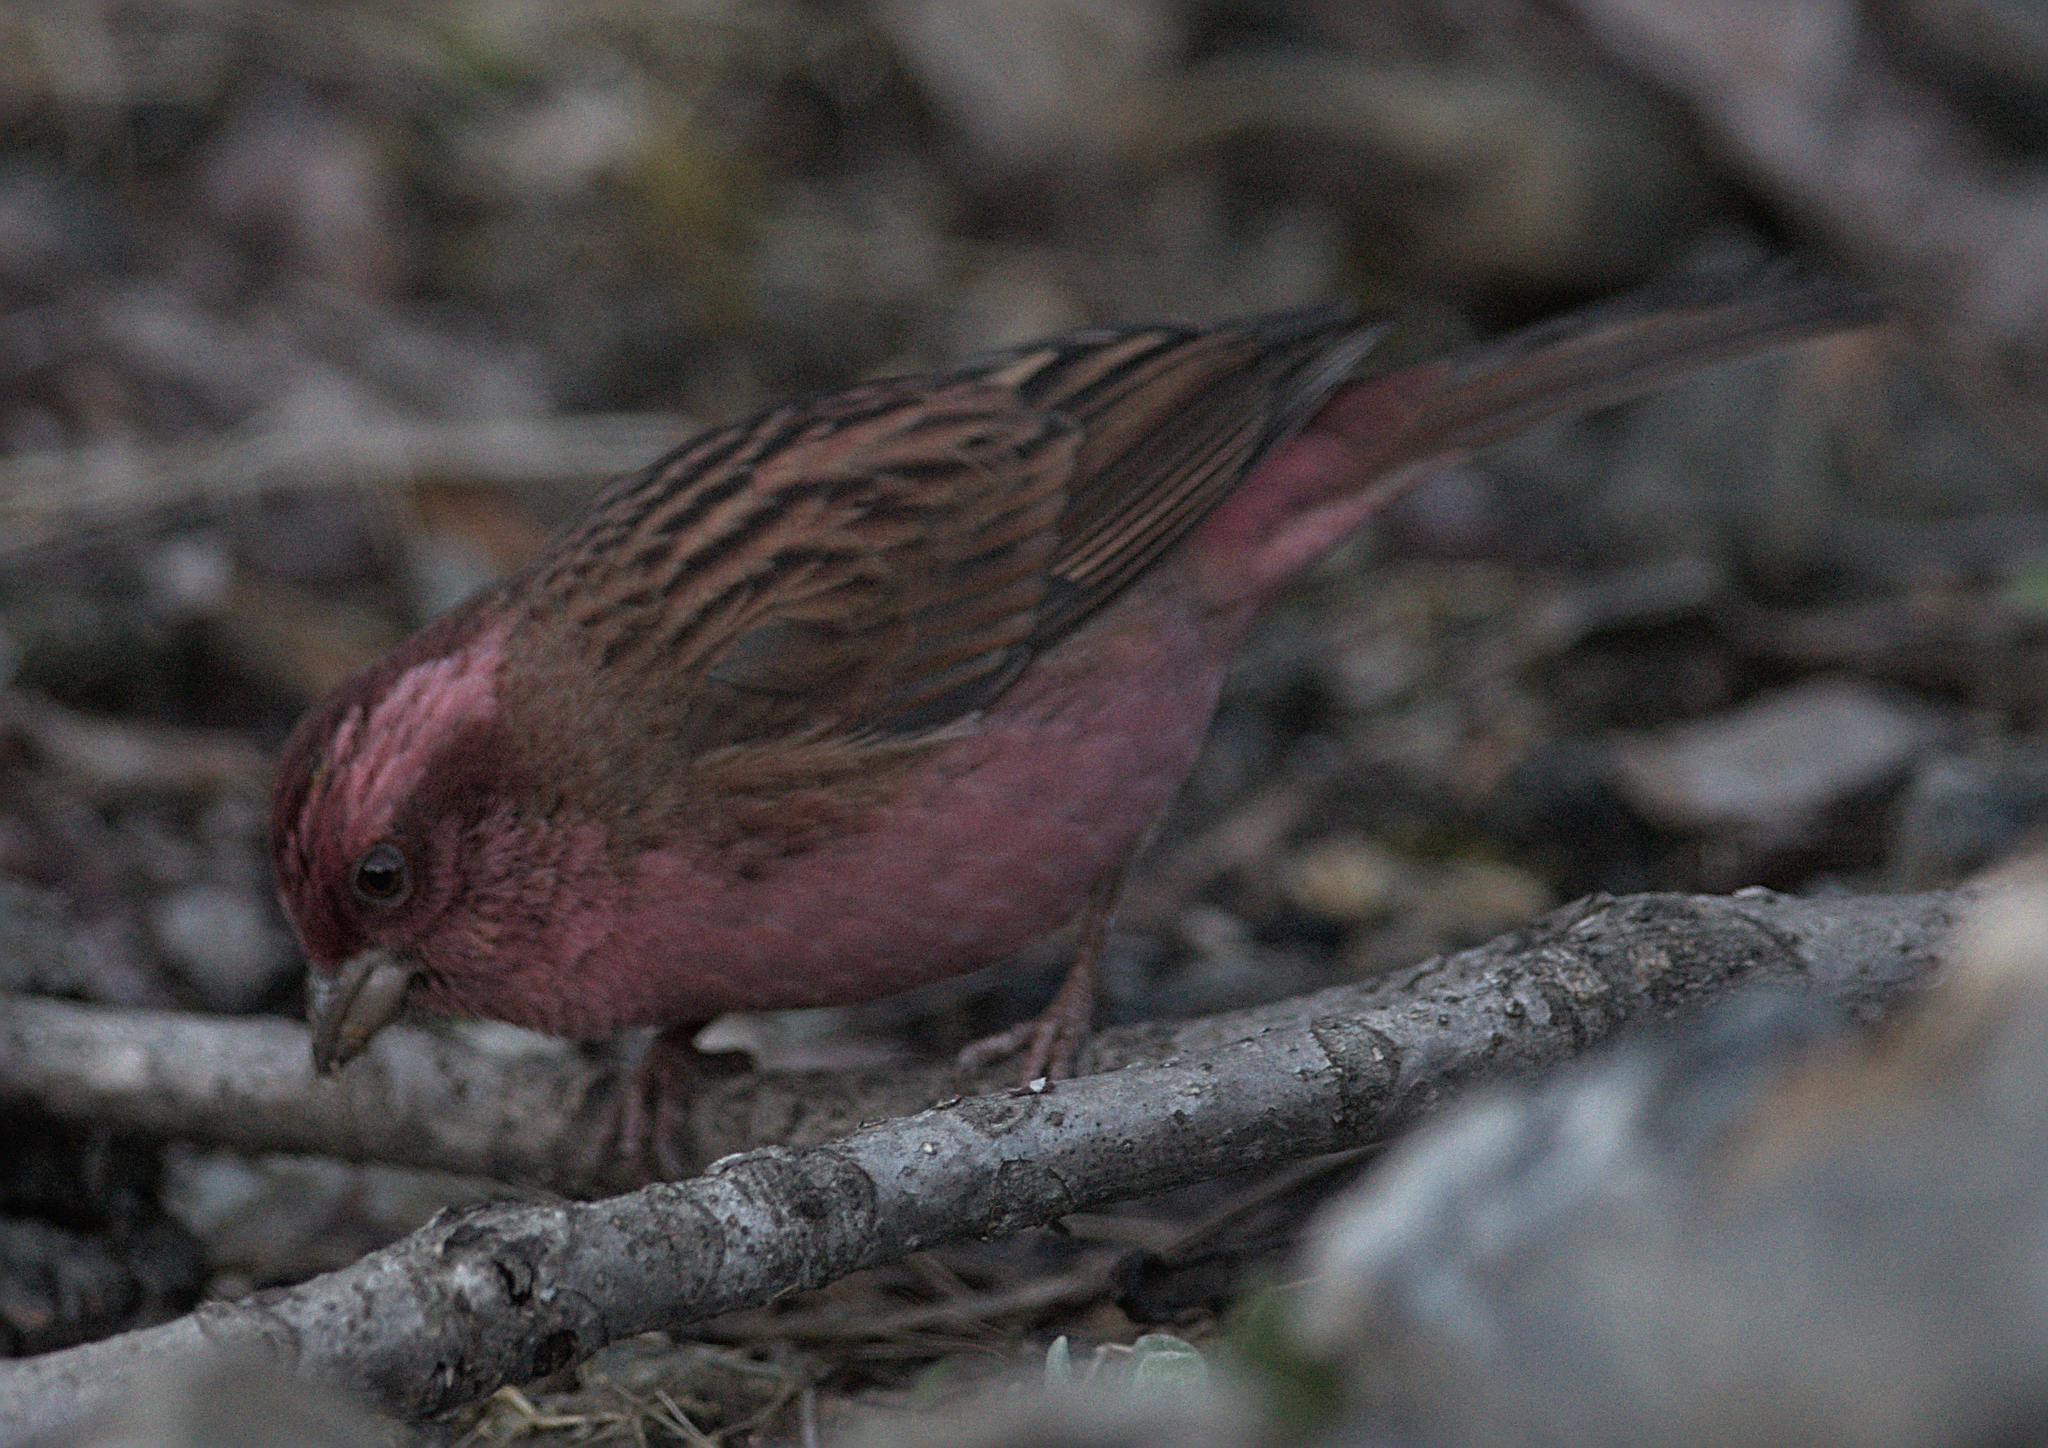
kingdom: Animalia
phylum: Chordata
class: Aves
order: Passeriformes
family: Fringillidae
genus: Carpodacus
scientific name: Carpodacus rodochroa
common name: Pink-browed rosefinch
